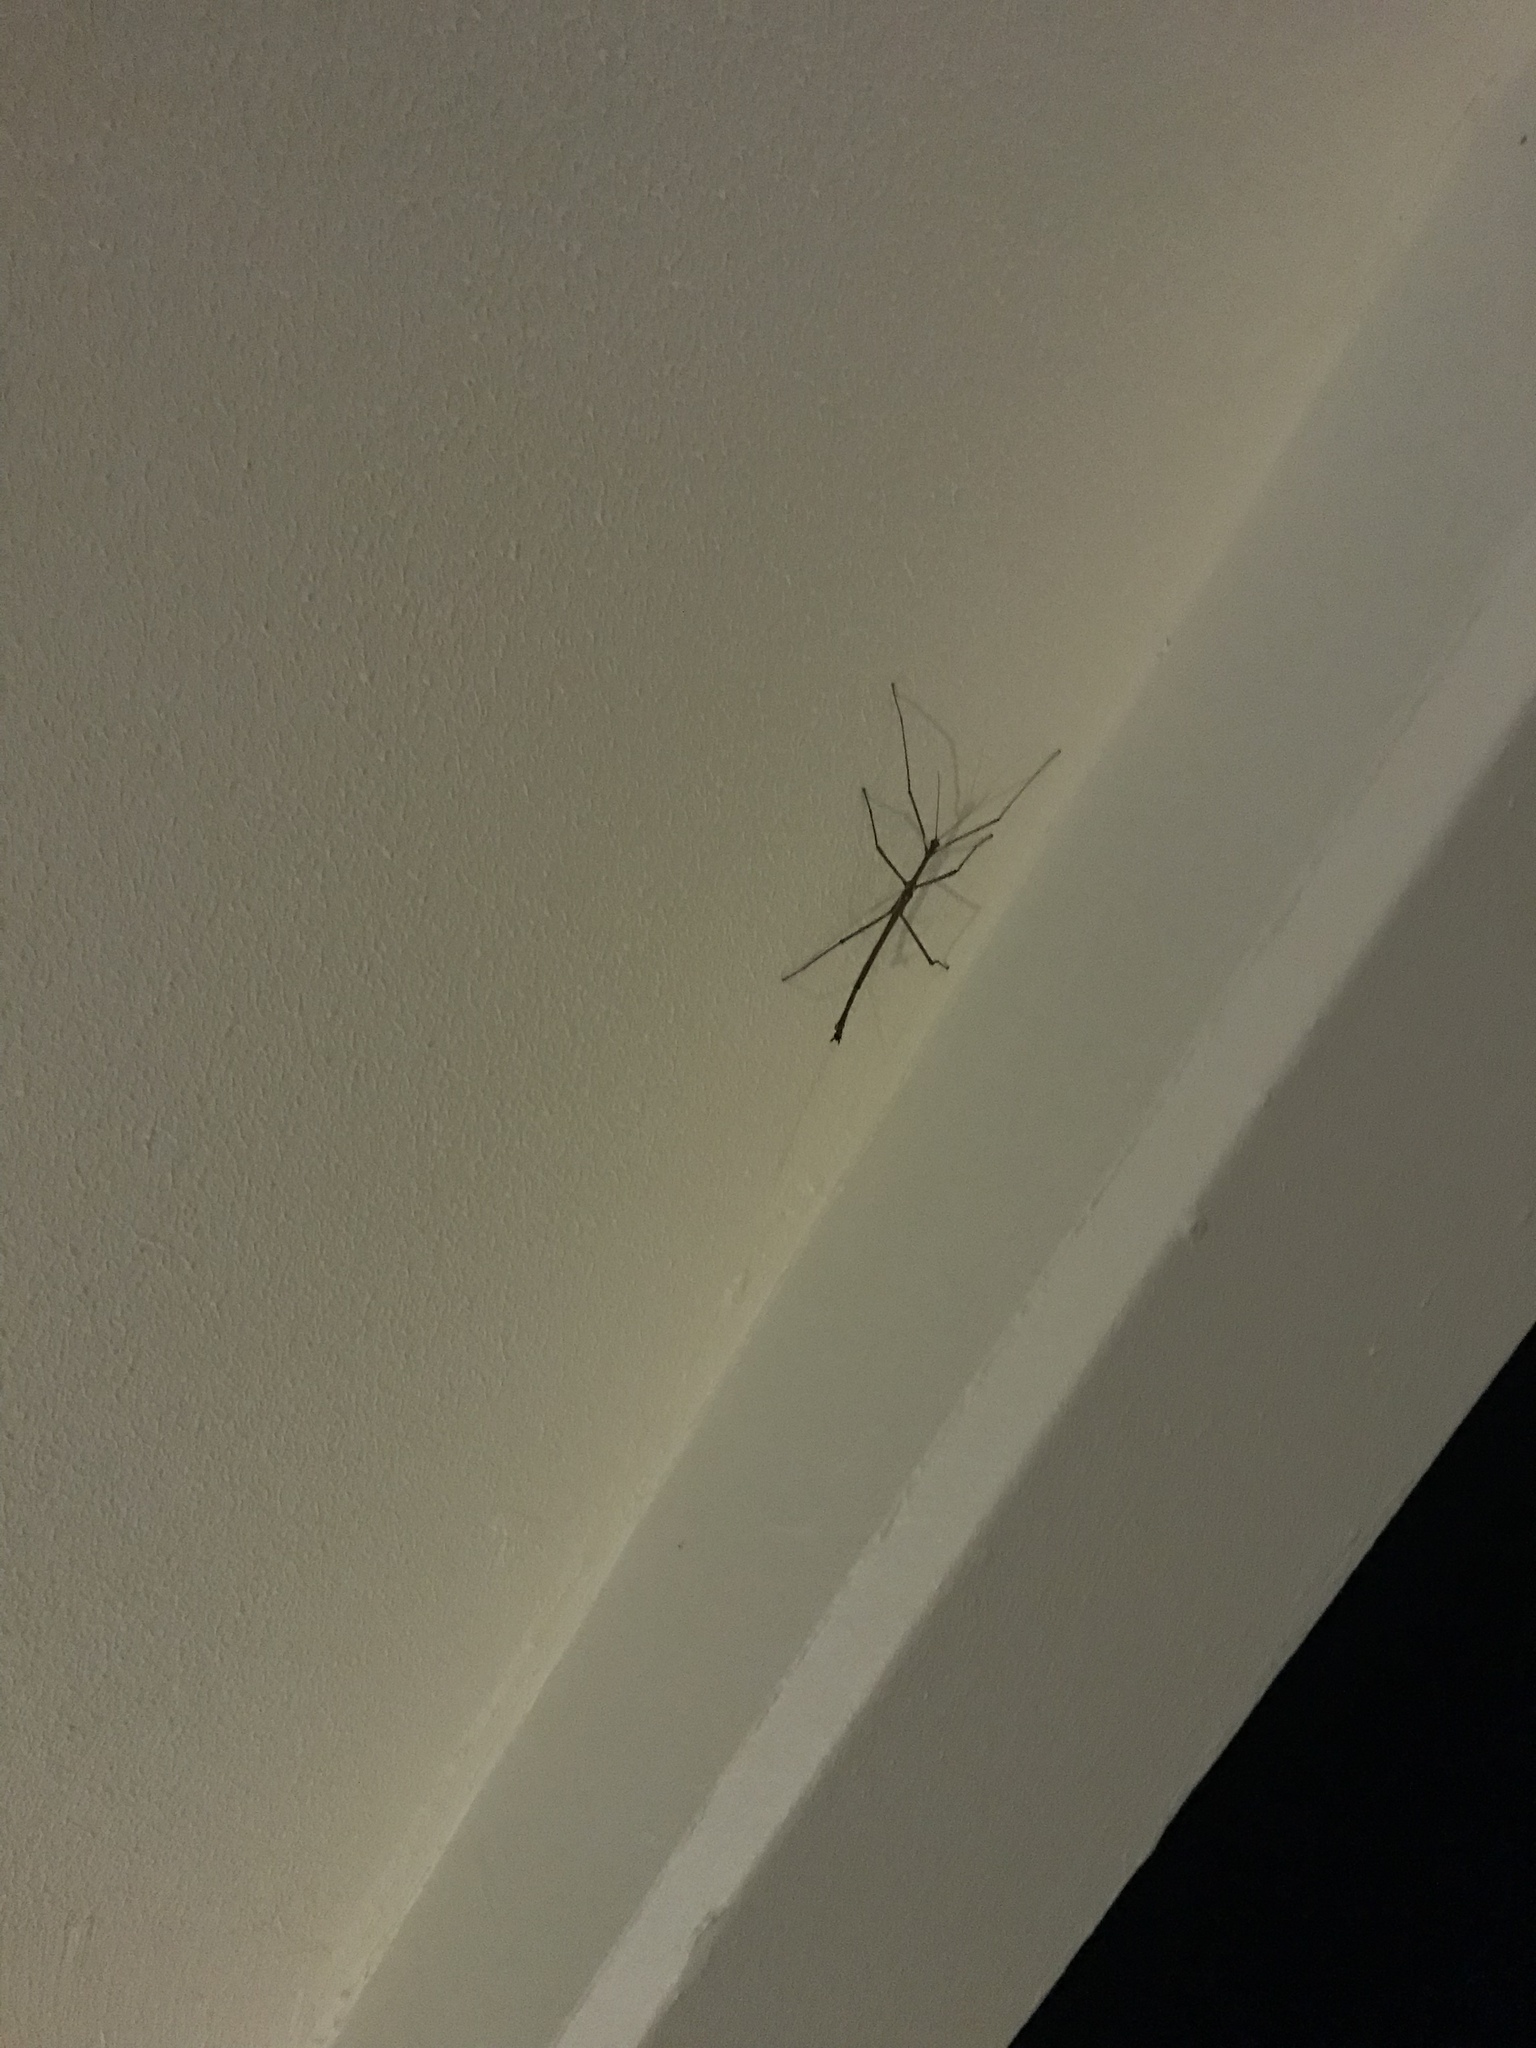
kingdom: Animalia
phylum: Arthropoda
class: Insecta
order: Phasmida
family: Phasmatidae
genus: Anchiale
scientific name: Anchiale briareus
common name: Strong stick insect
